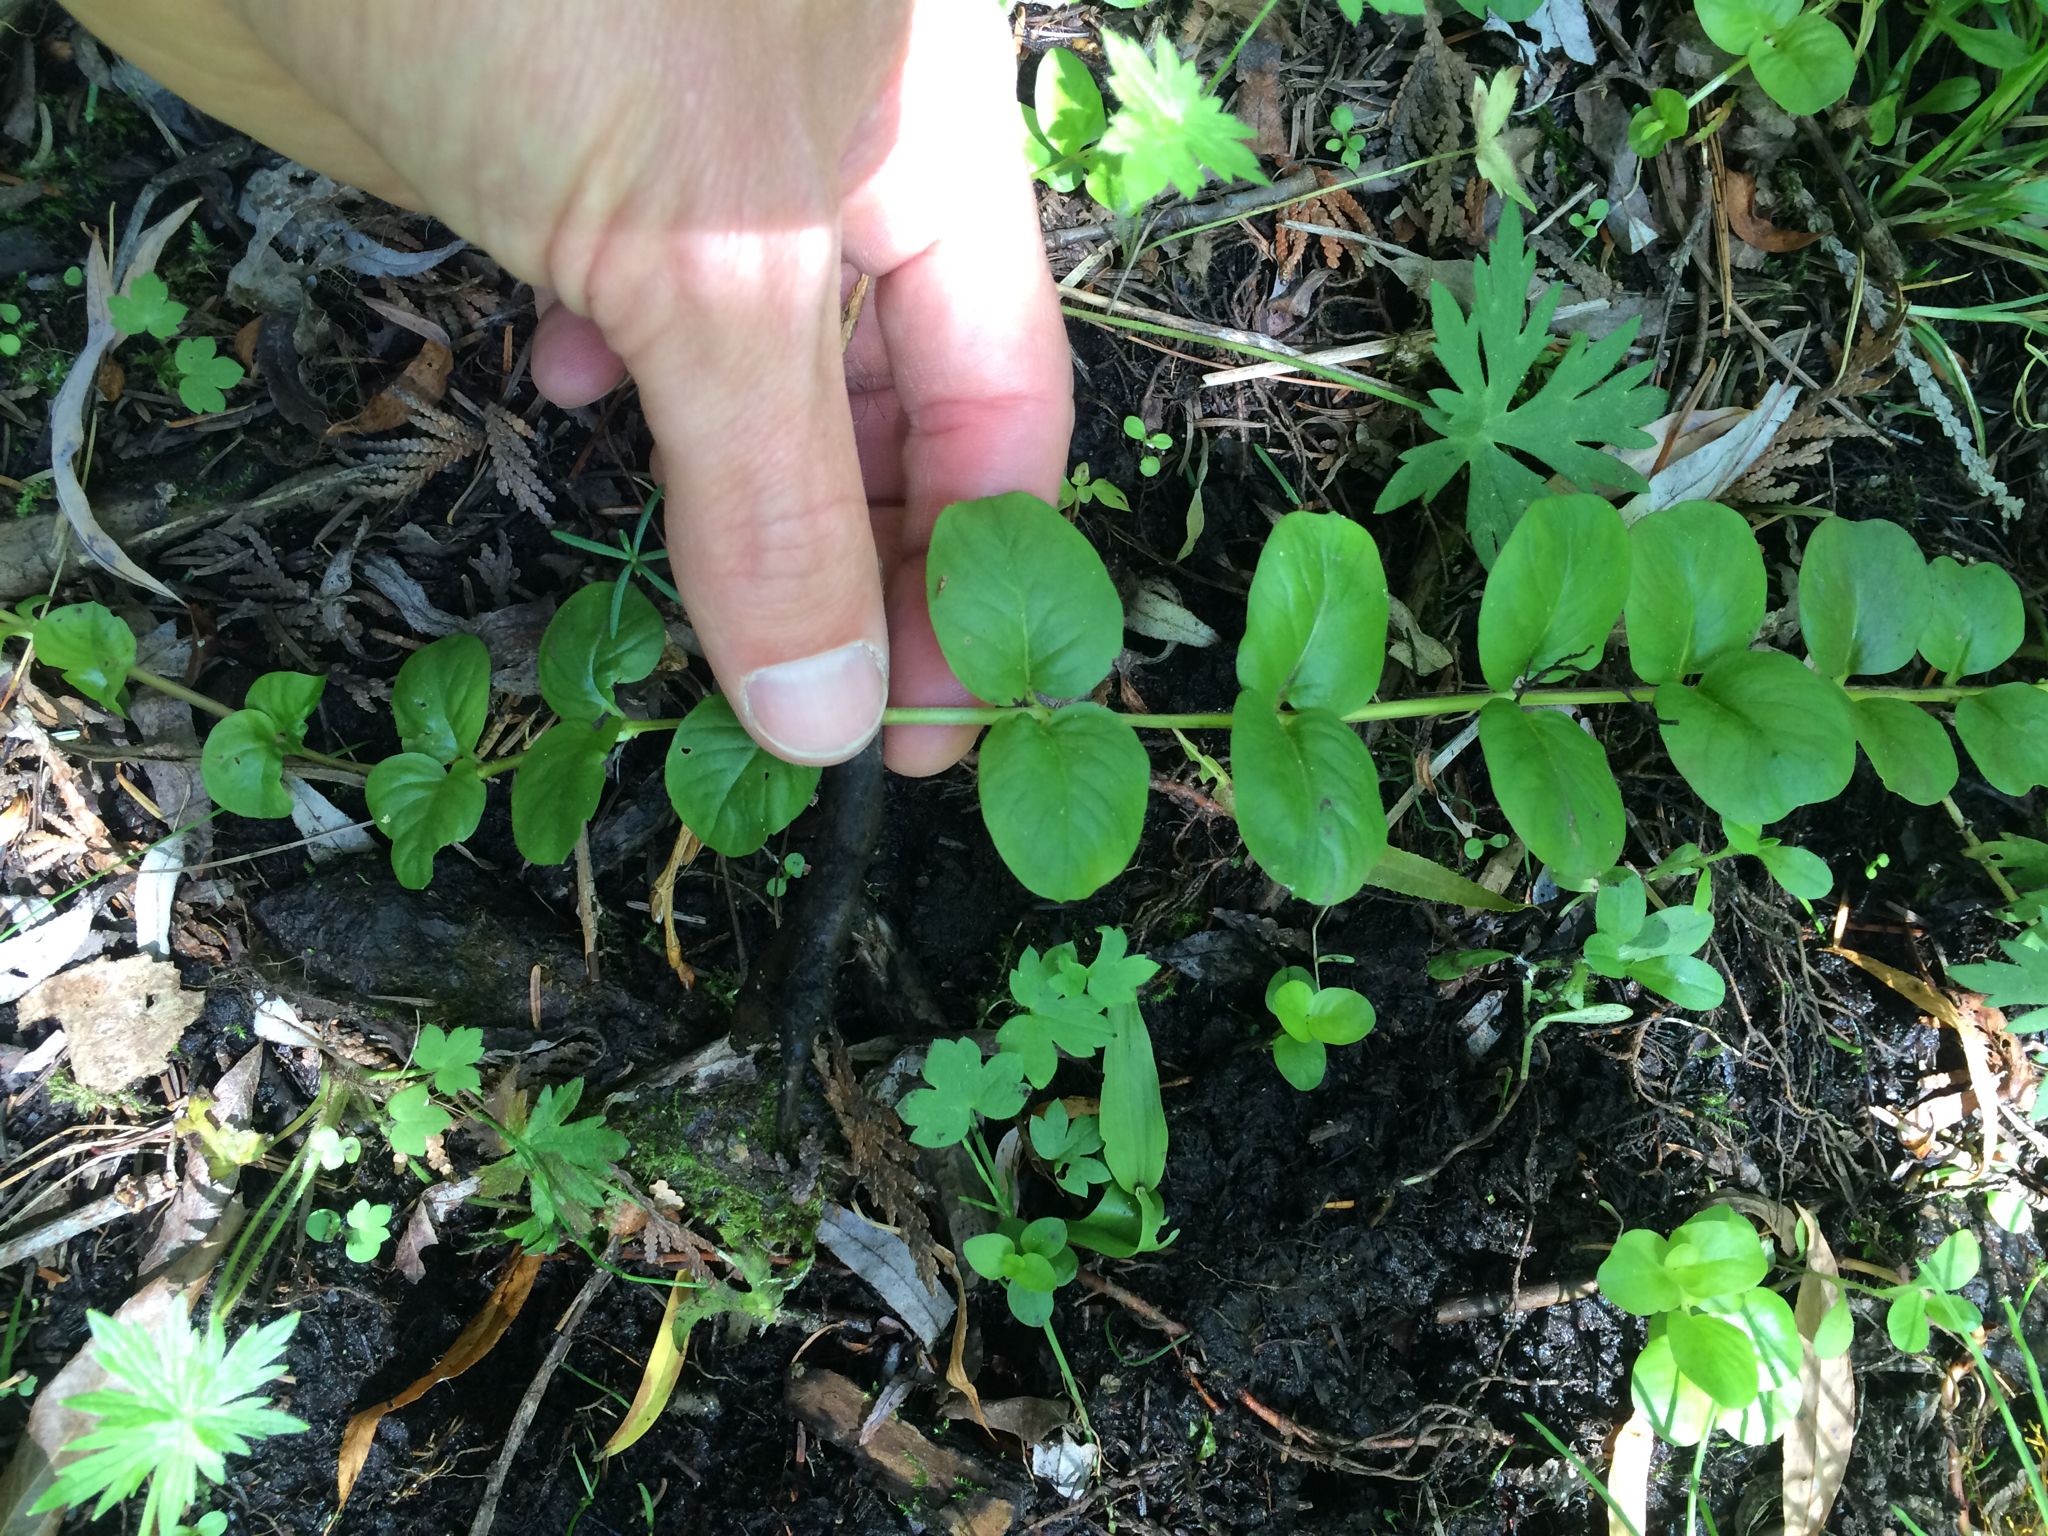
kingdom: Plantae
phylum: Tracheophyta
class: Magnoliopsida
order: Ericales
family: Primulaceae
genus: Lysimachia
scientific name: Lysimachia nummularia
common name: Moneywort
